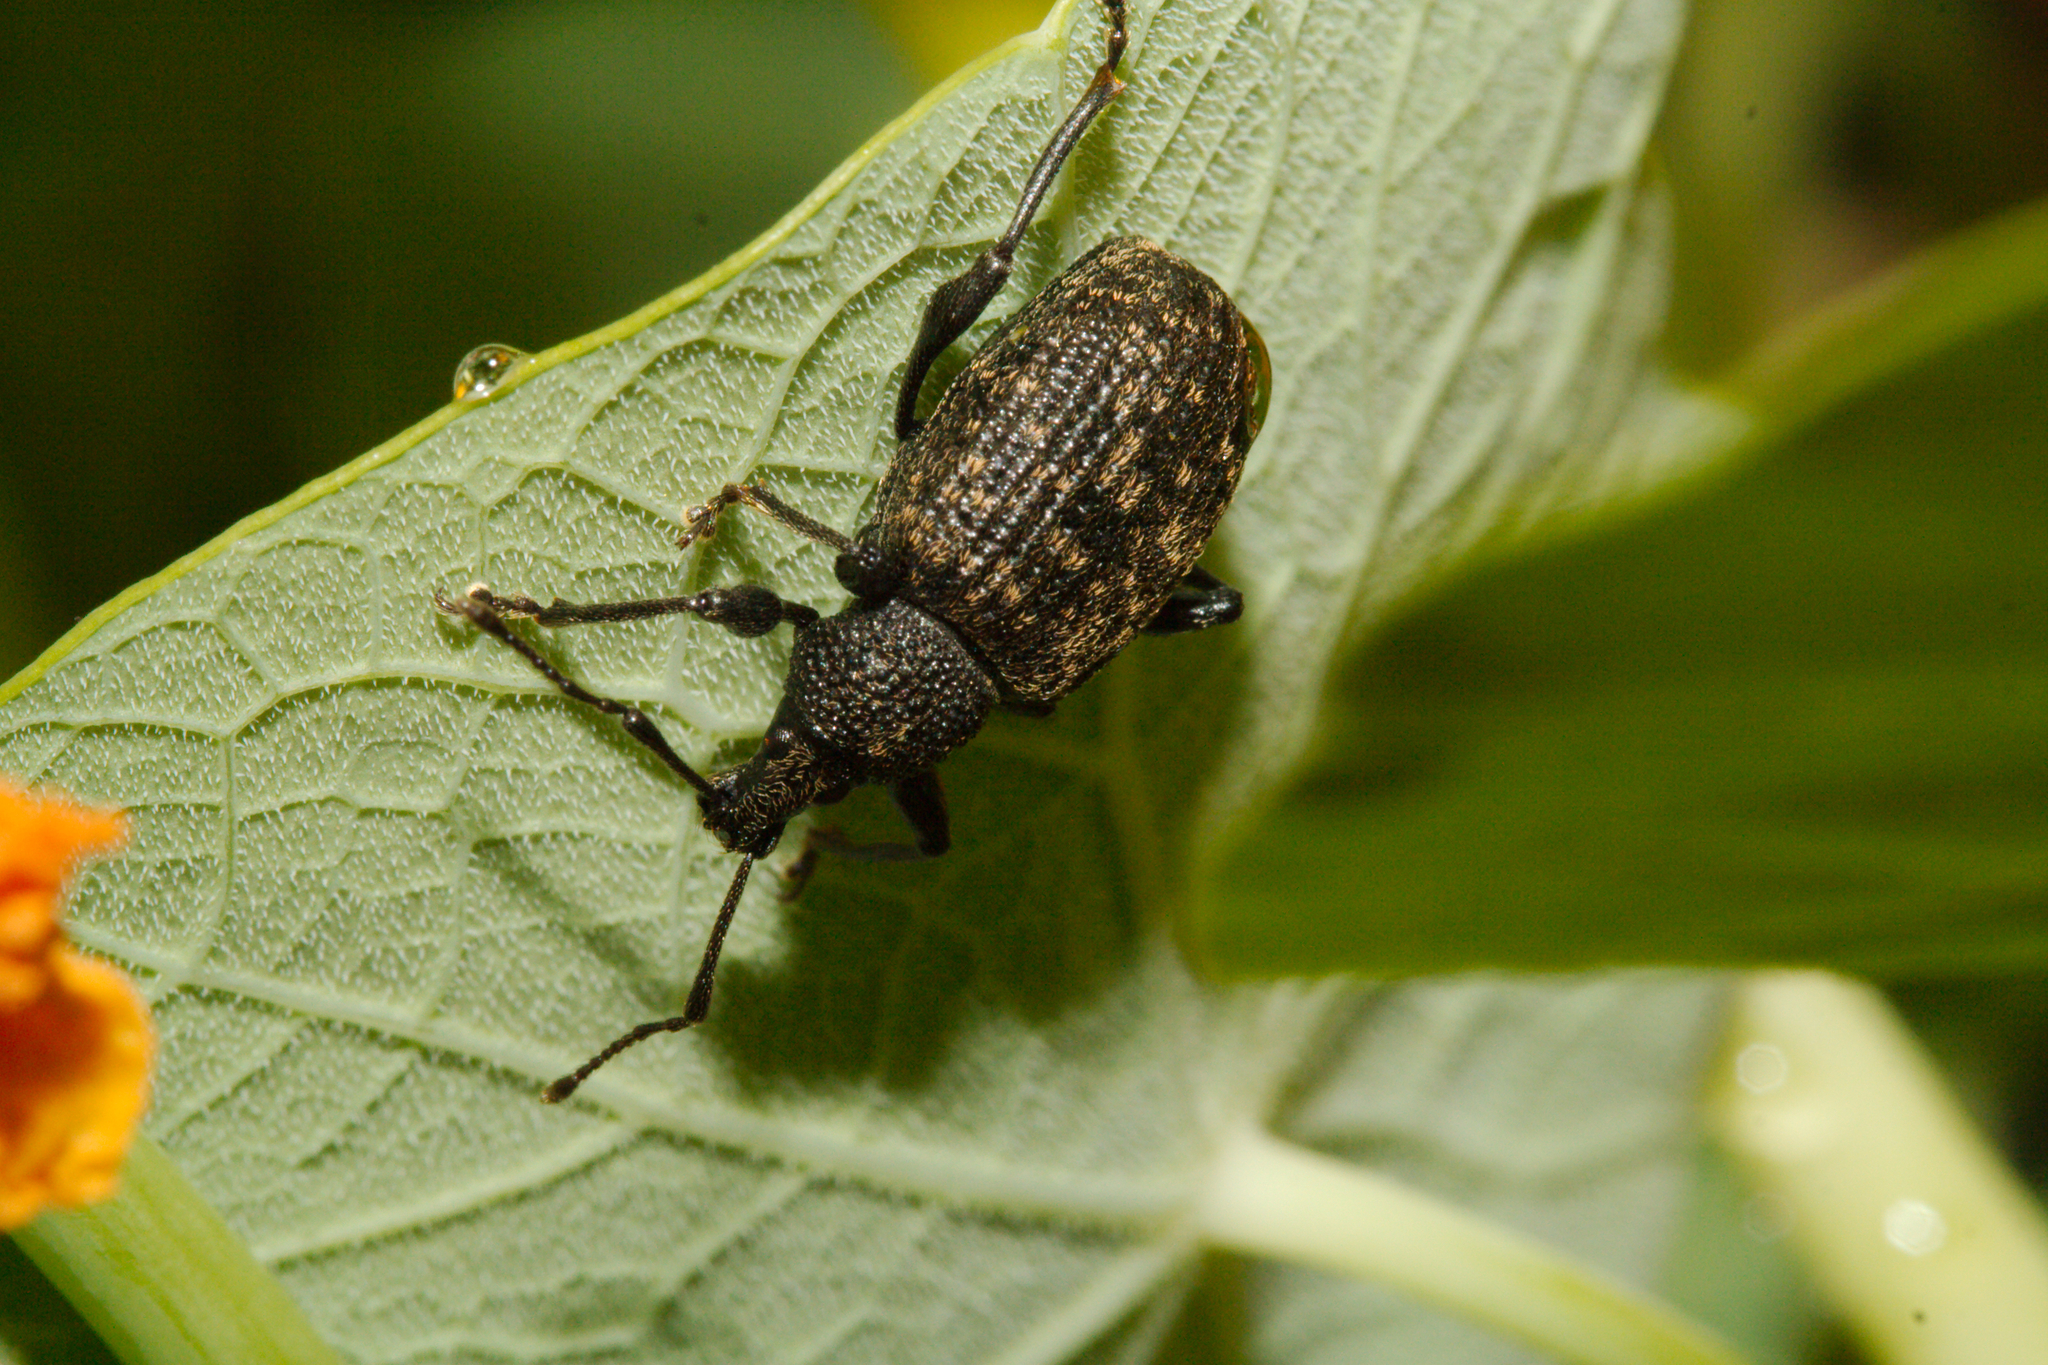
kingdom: Animalia
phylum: Arthropoda
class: Insecta
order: Coleoptera
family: Curculionidae
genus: Otiorhynchus
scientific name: Otiorhynchus sulcatus
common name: Black vine weevil
